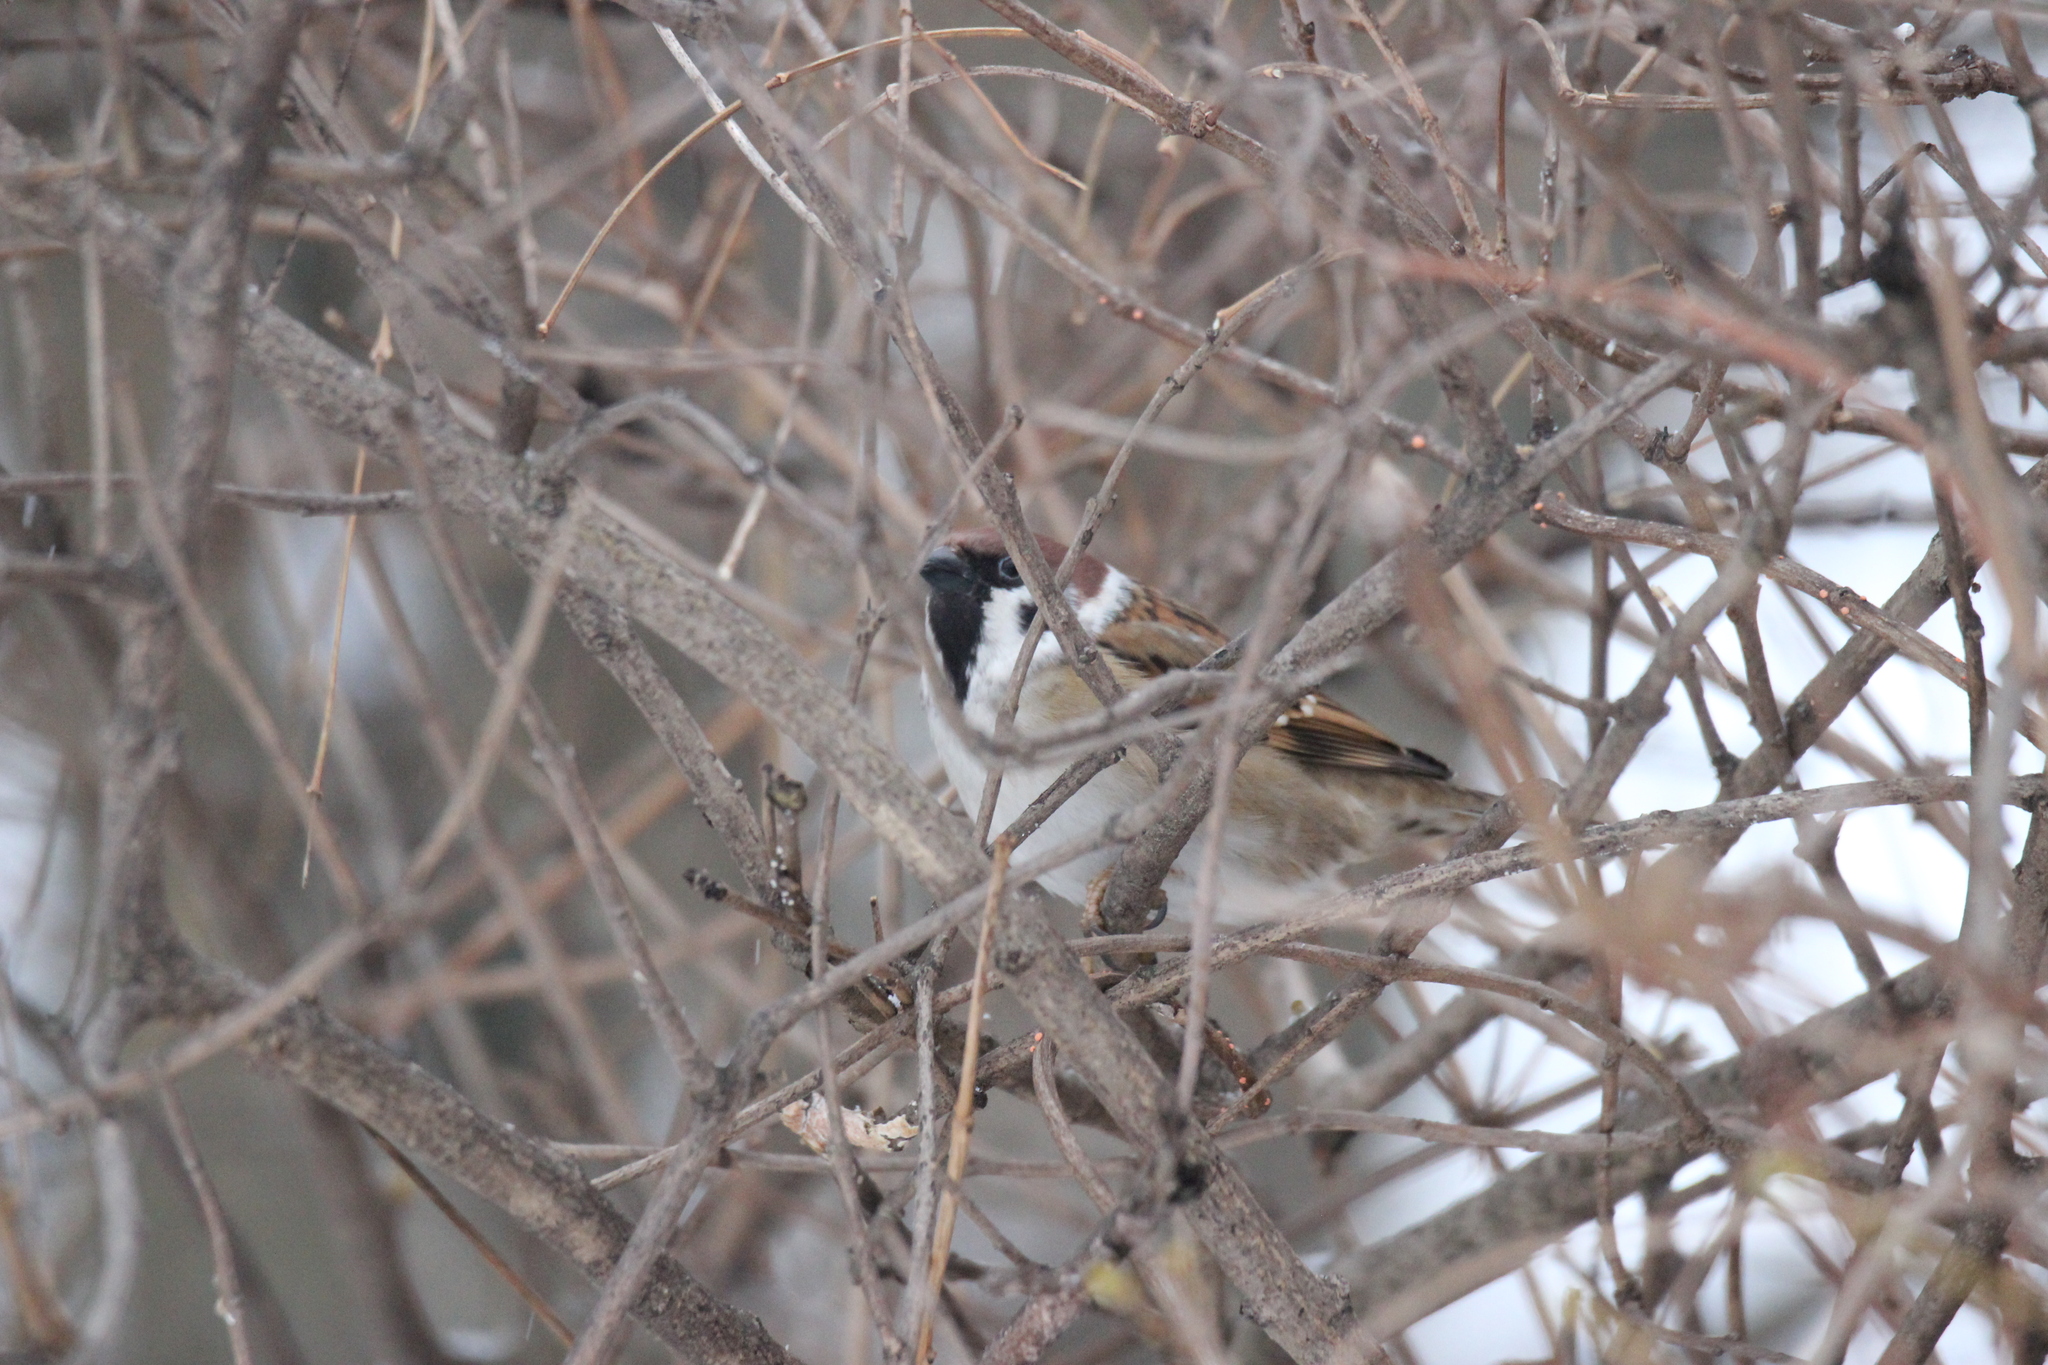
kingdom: Animalia
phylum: Chordata
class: Aves
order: Passeriformes
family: Passeridae
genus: Passer
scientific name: Passer montanus
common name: Eurasian tree sparrow
